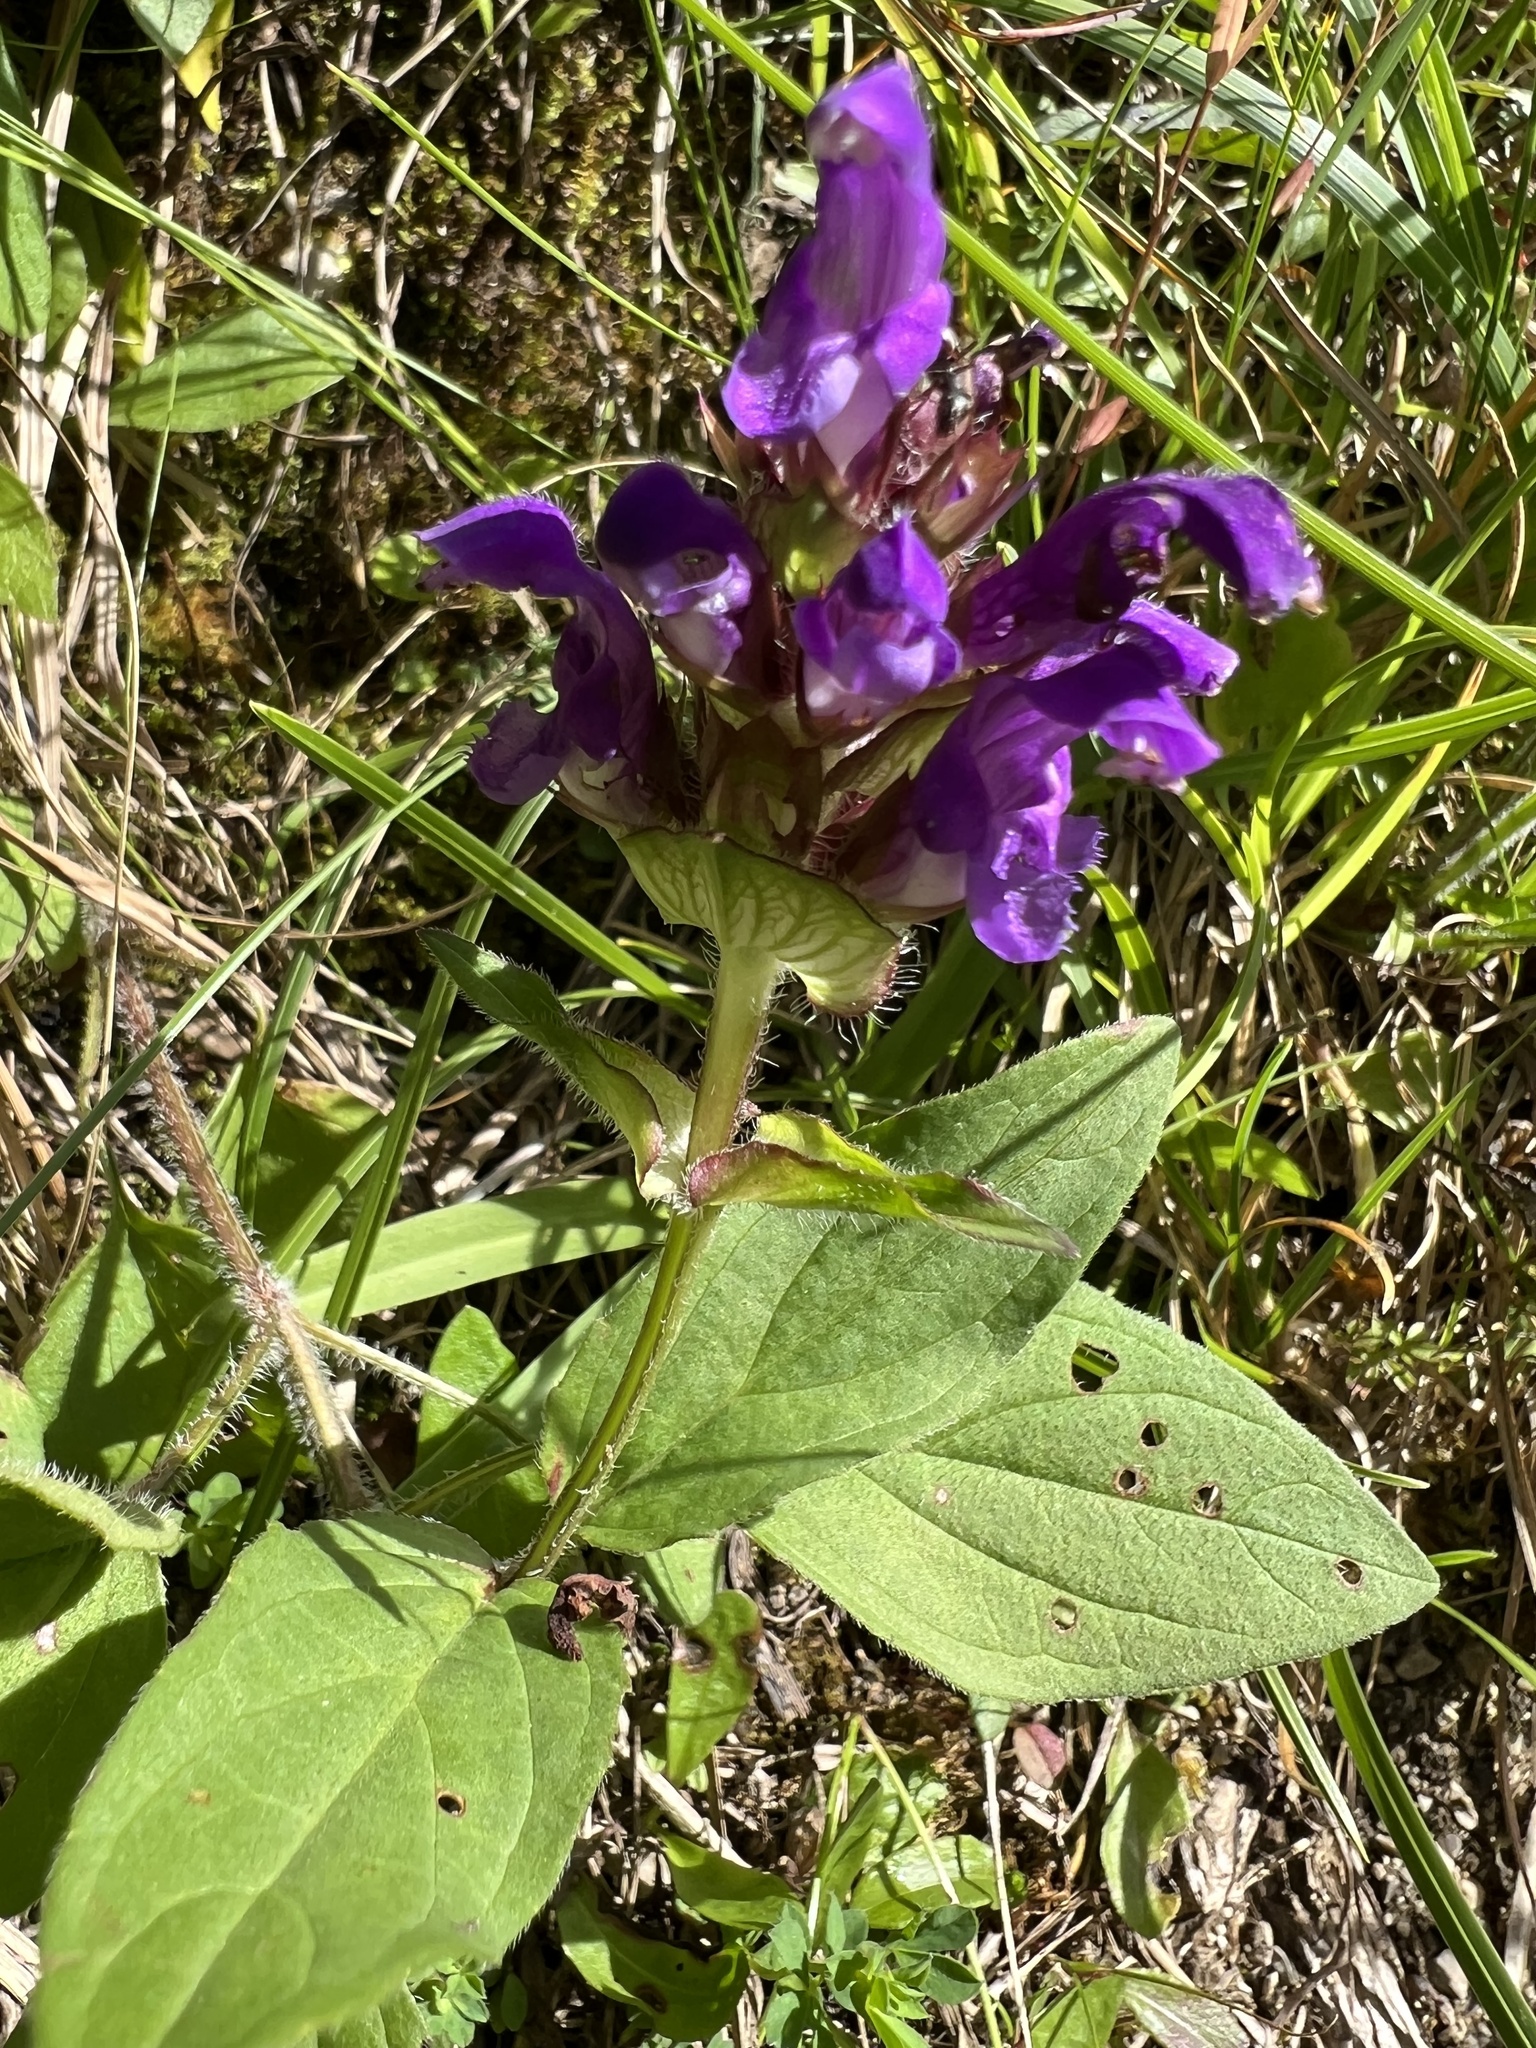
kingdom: Plantae
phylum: Tracheophyta
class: Magnoliopsida
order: Lamiales
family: Lamiaceae
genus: Prunella
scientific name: Prunella grandiflora
